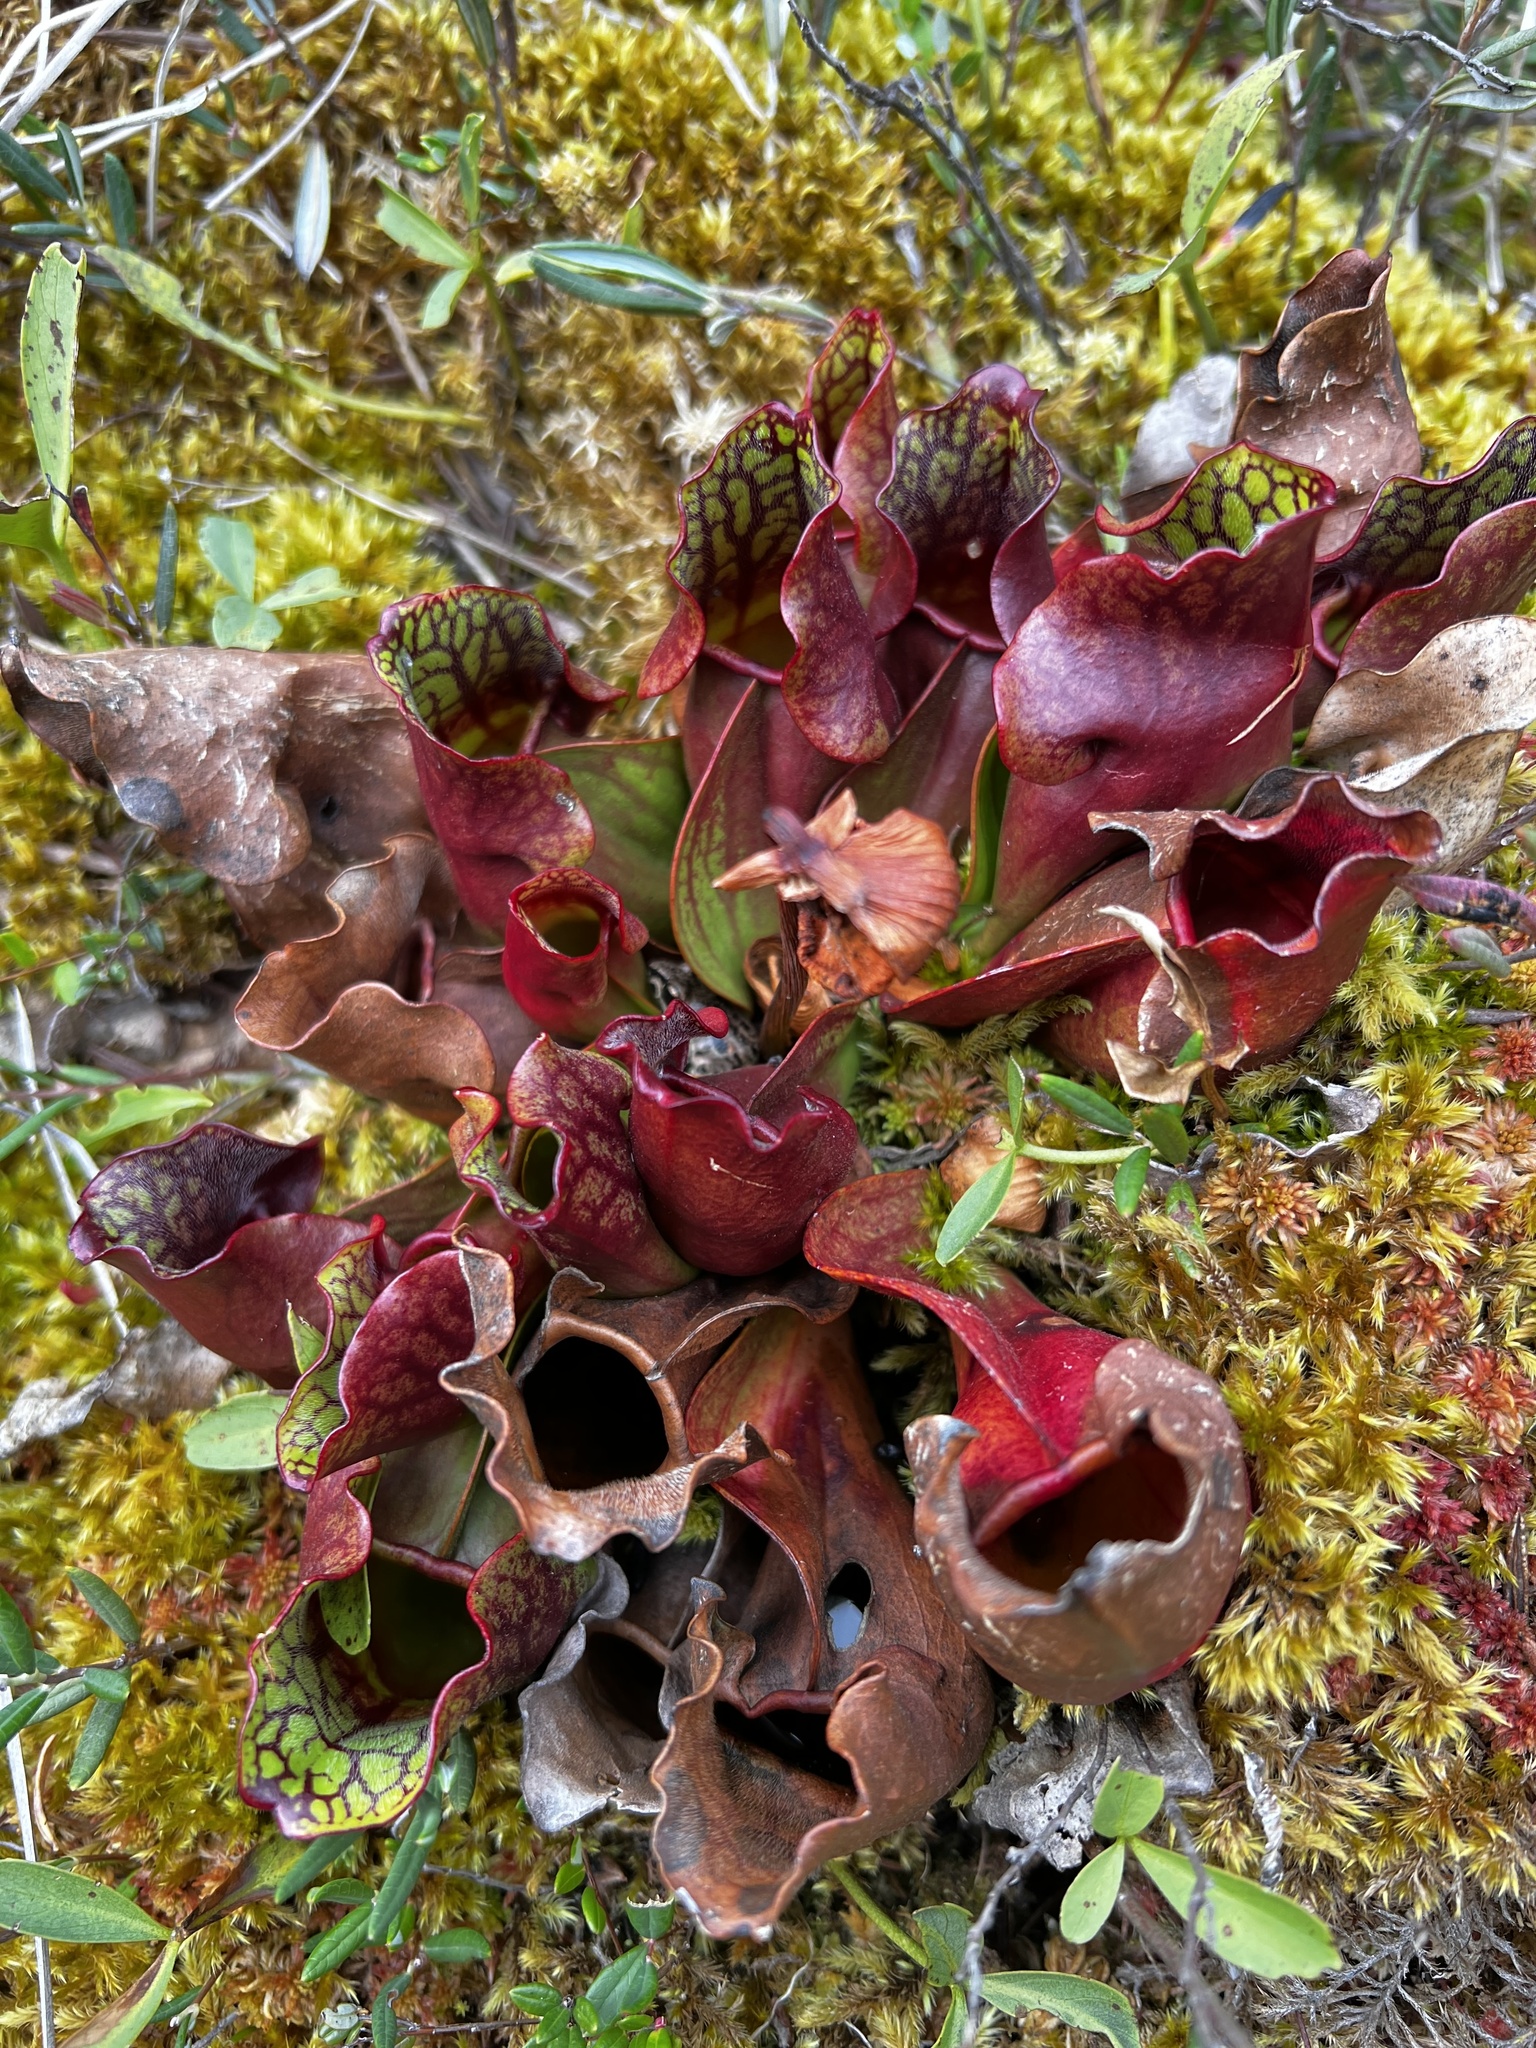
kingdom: Animalia
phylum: Chordata
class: Amphibia
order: Anura
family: Ranidae
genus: Lithobates
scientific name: Lithobates sylvaticus
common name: Wood frog
